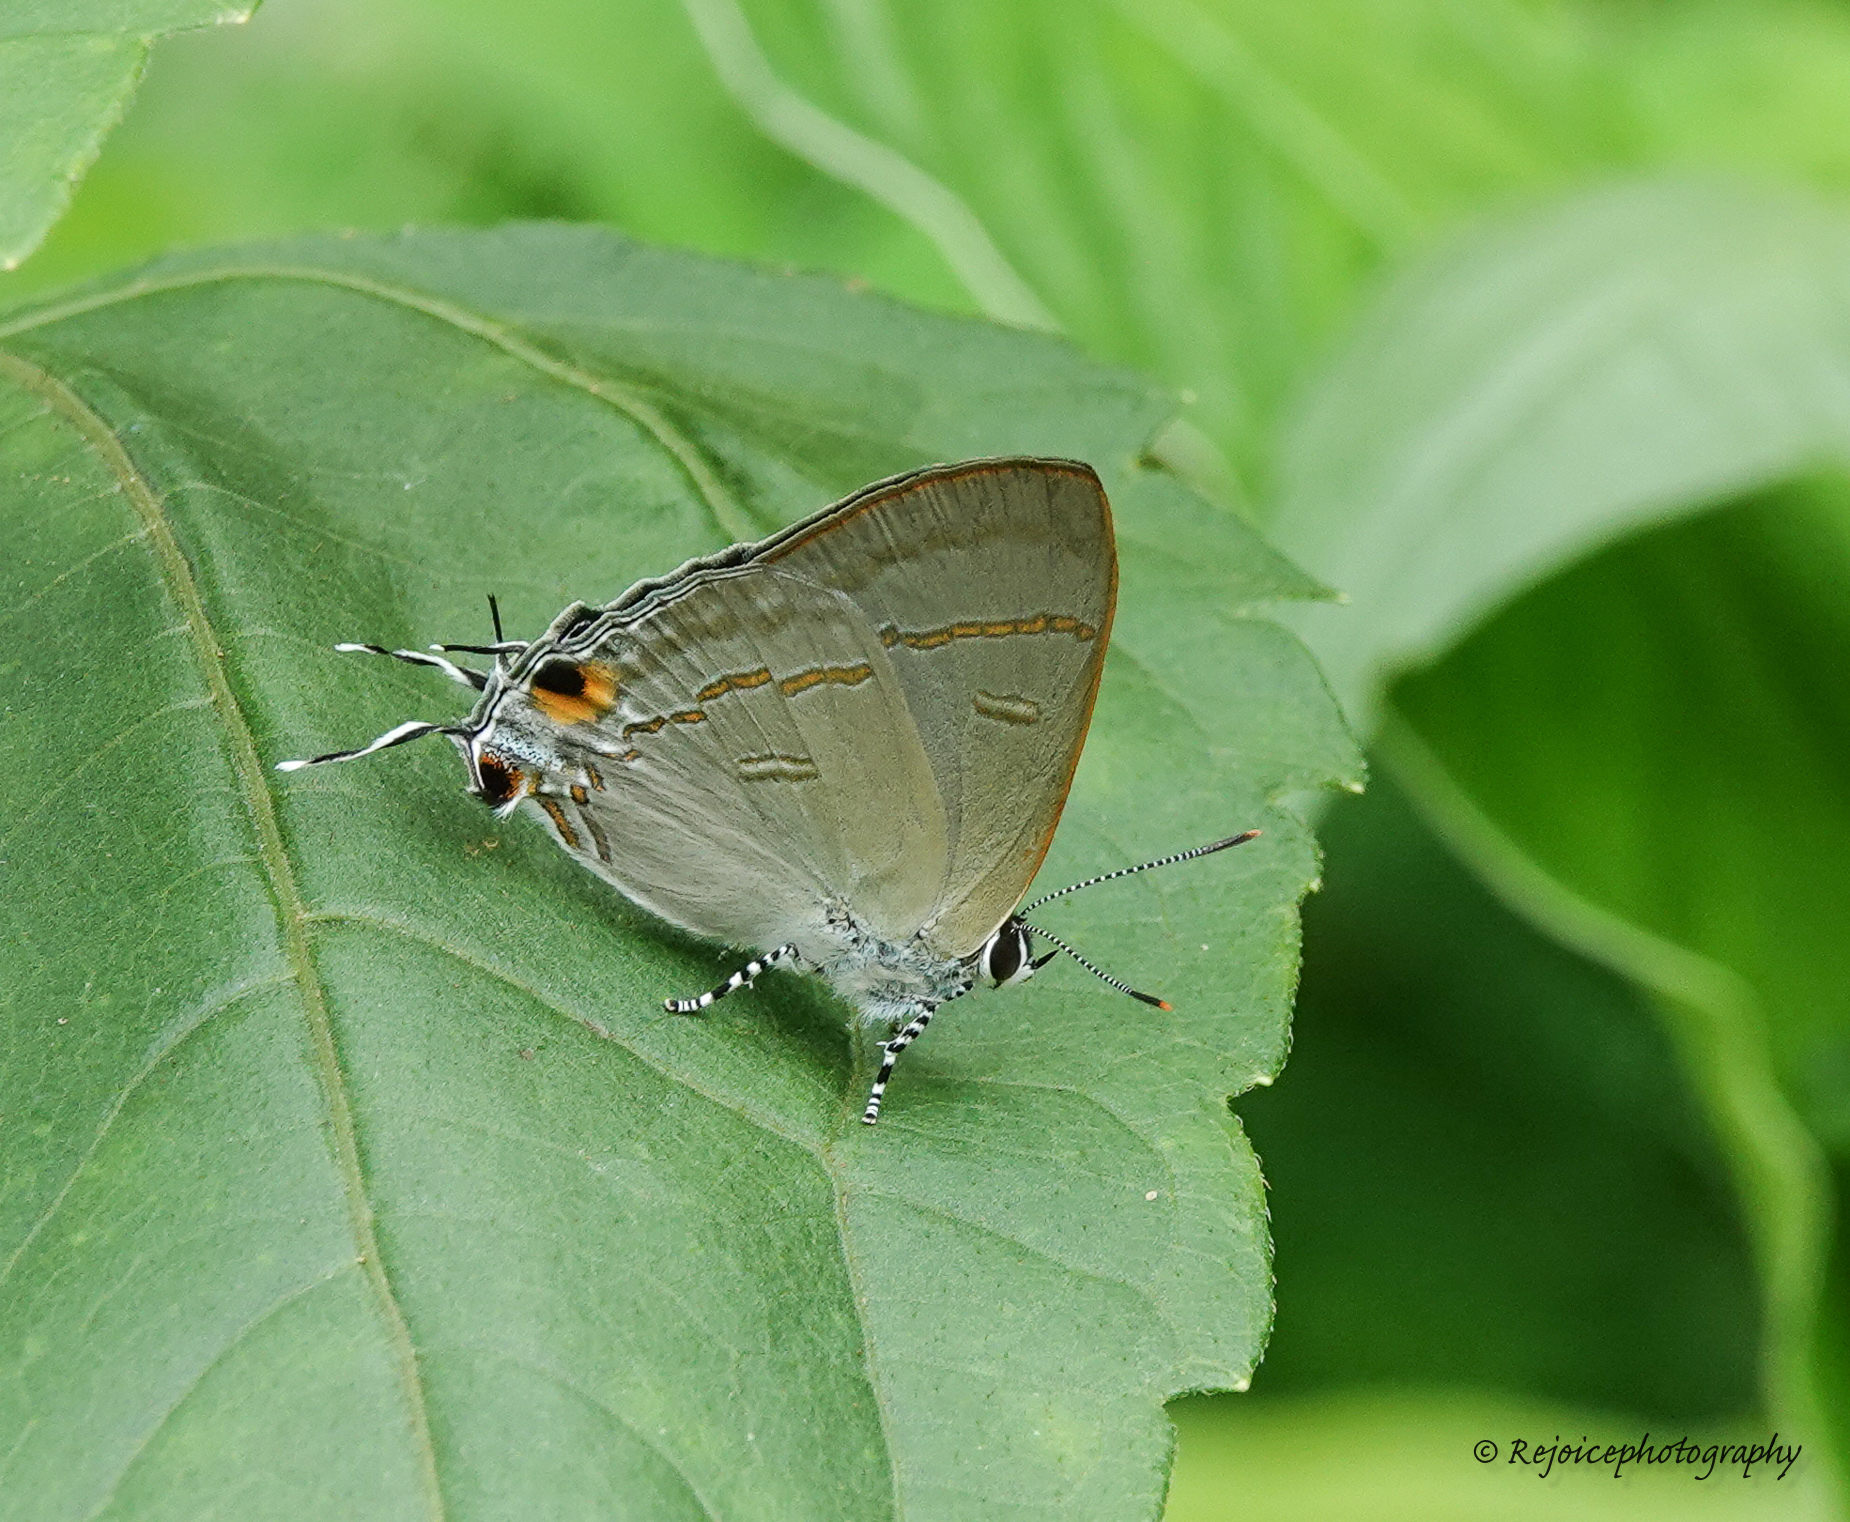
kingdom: Animalia
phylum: Arthropoda
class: Insecta
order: Lepidoptera
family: Lycaenidae
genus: Hypolycaena
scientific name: Hypolycaena erylus
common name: Common tit
